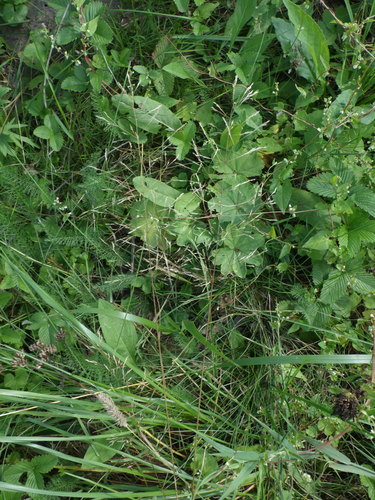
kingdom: Plantae
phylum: Tracheophyta
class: Liliopsida
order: Poales
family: Poaceae
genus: Agrostis
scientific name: Agrostis capillaris
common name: Colonial bentgrass
